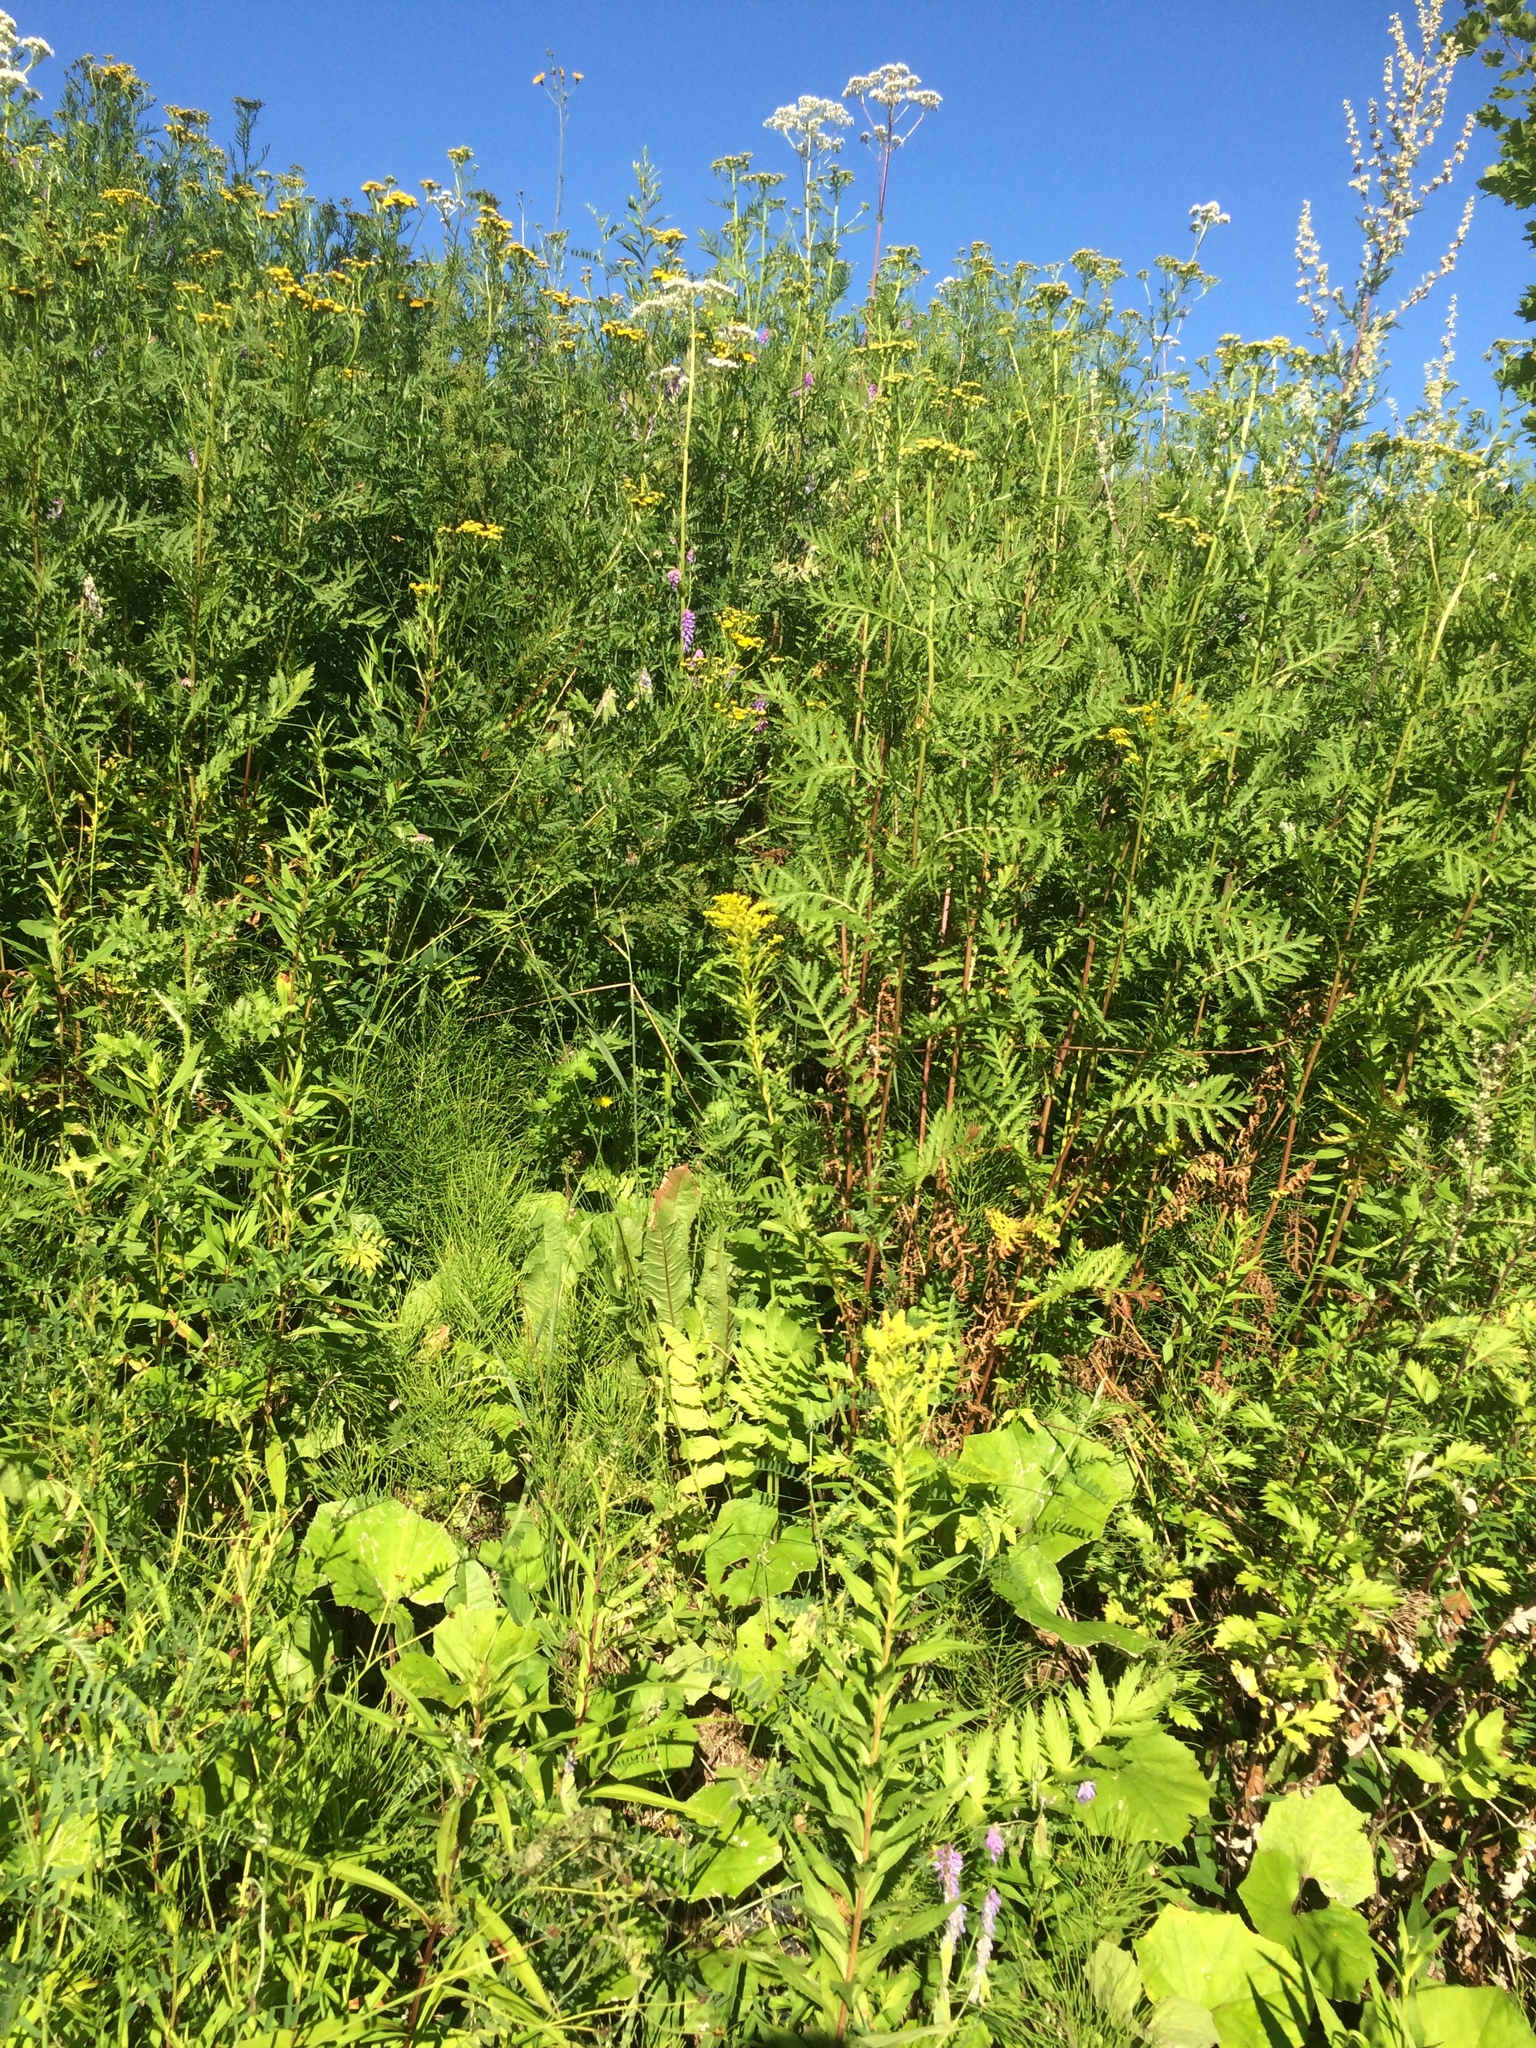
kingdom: Plantae
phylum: Tracheophyta
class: Magnoliopsida
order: Asterales
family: Asteraceae
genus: Solidago
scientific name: Solidago canadensis
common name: Canada goldenrod
